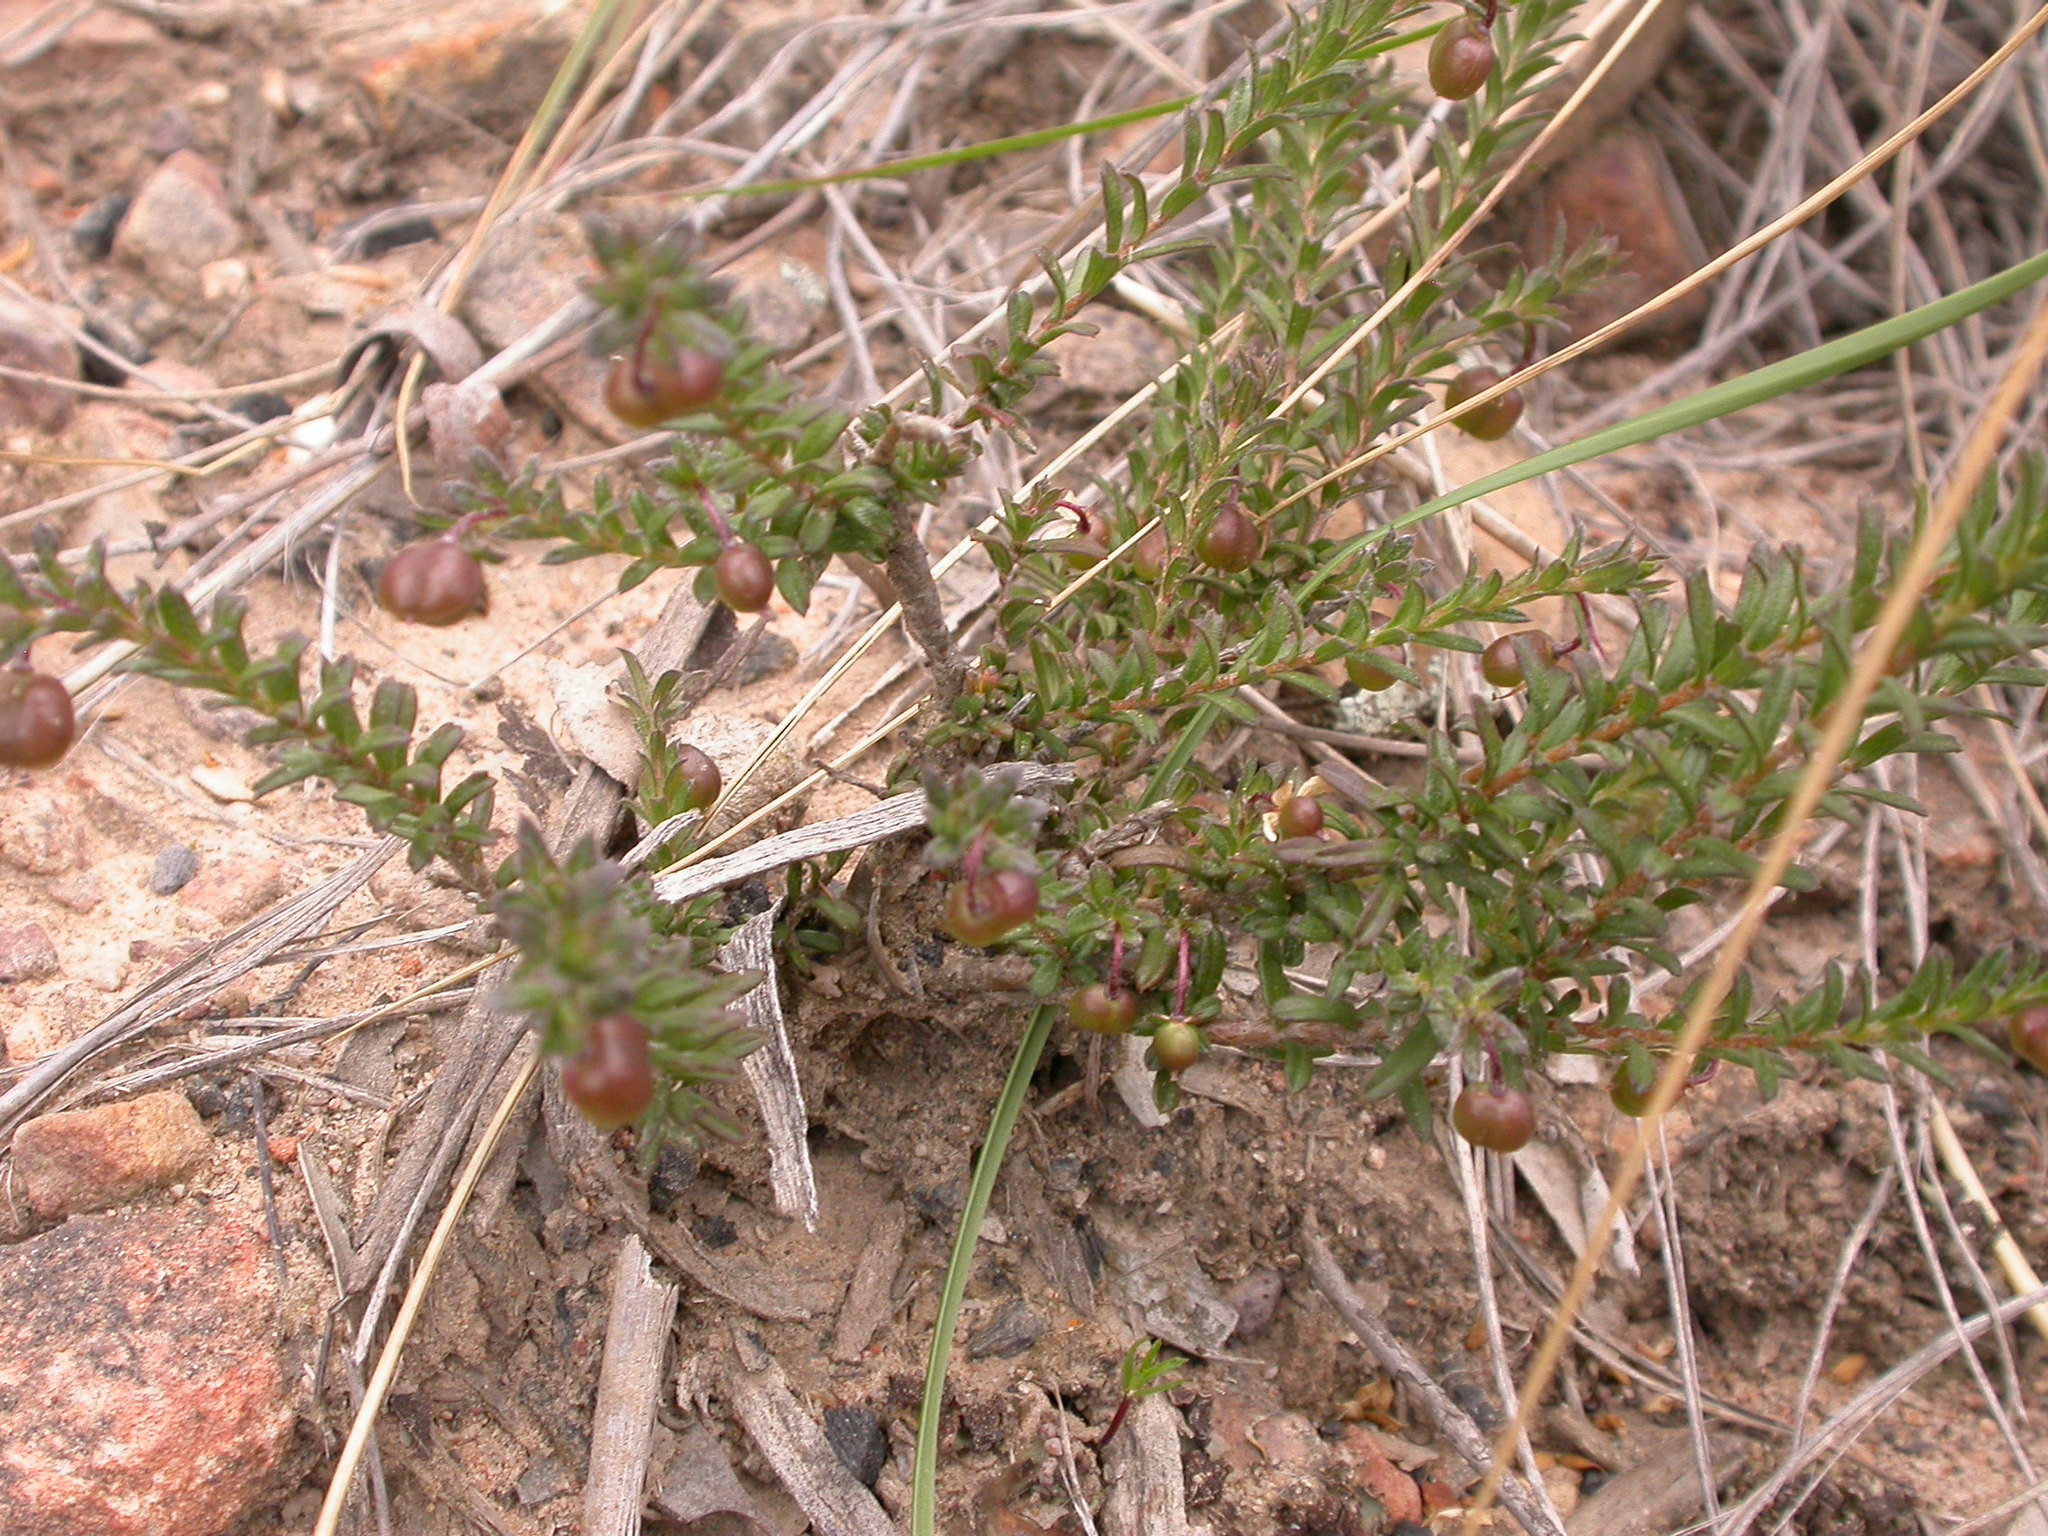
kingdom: Plantae
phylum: Tracheophyta
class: Magnoliopsida
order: Apiales
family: Pittosporaceae
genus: Rhytidosporum
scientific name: Rhytidosporum procumbens
